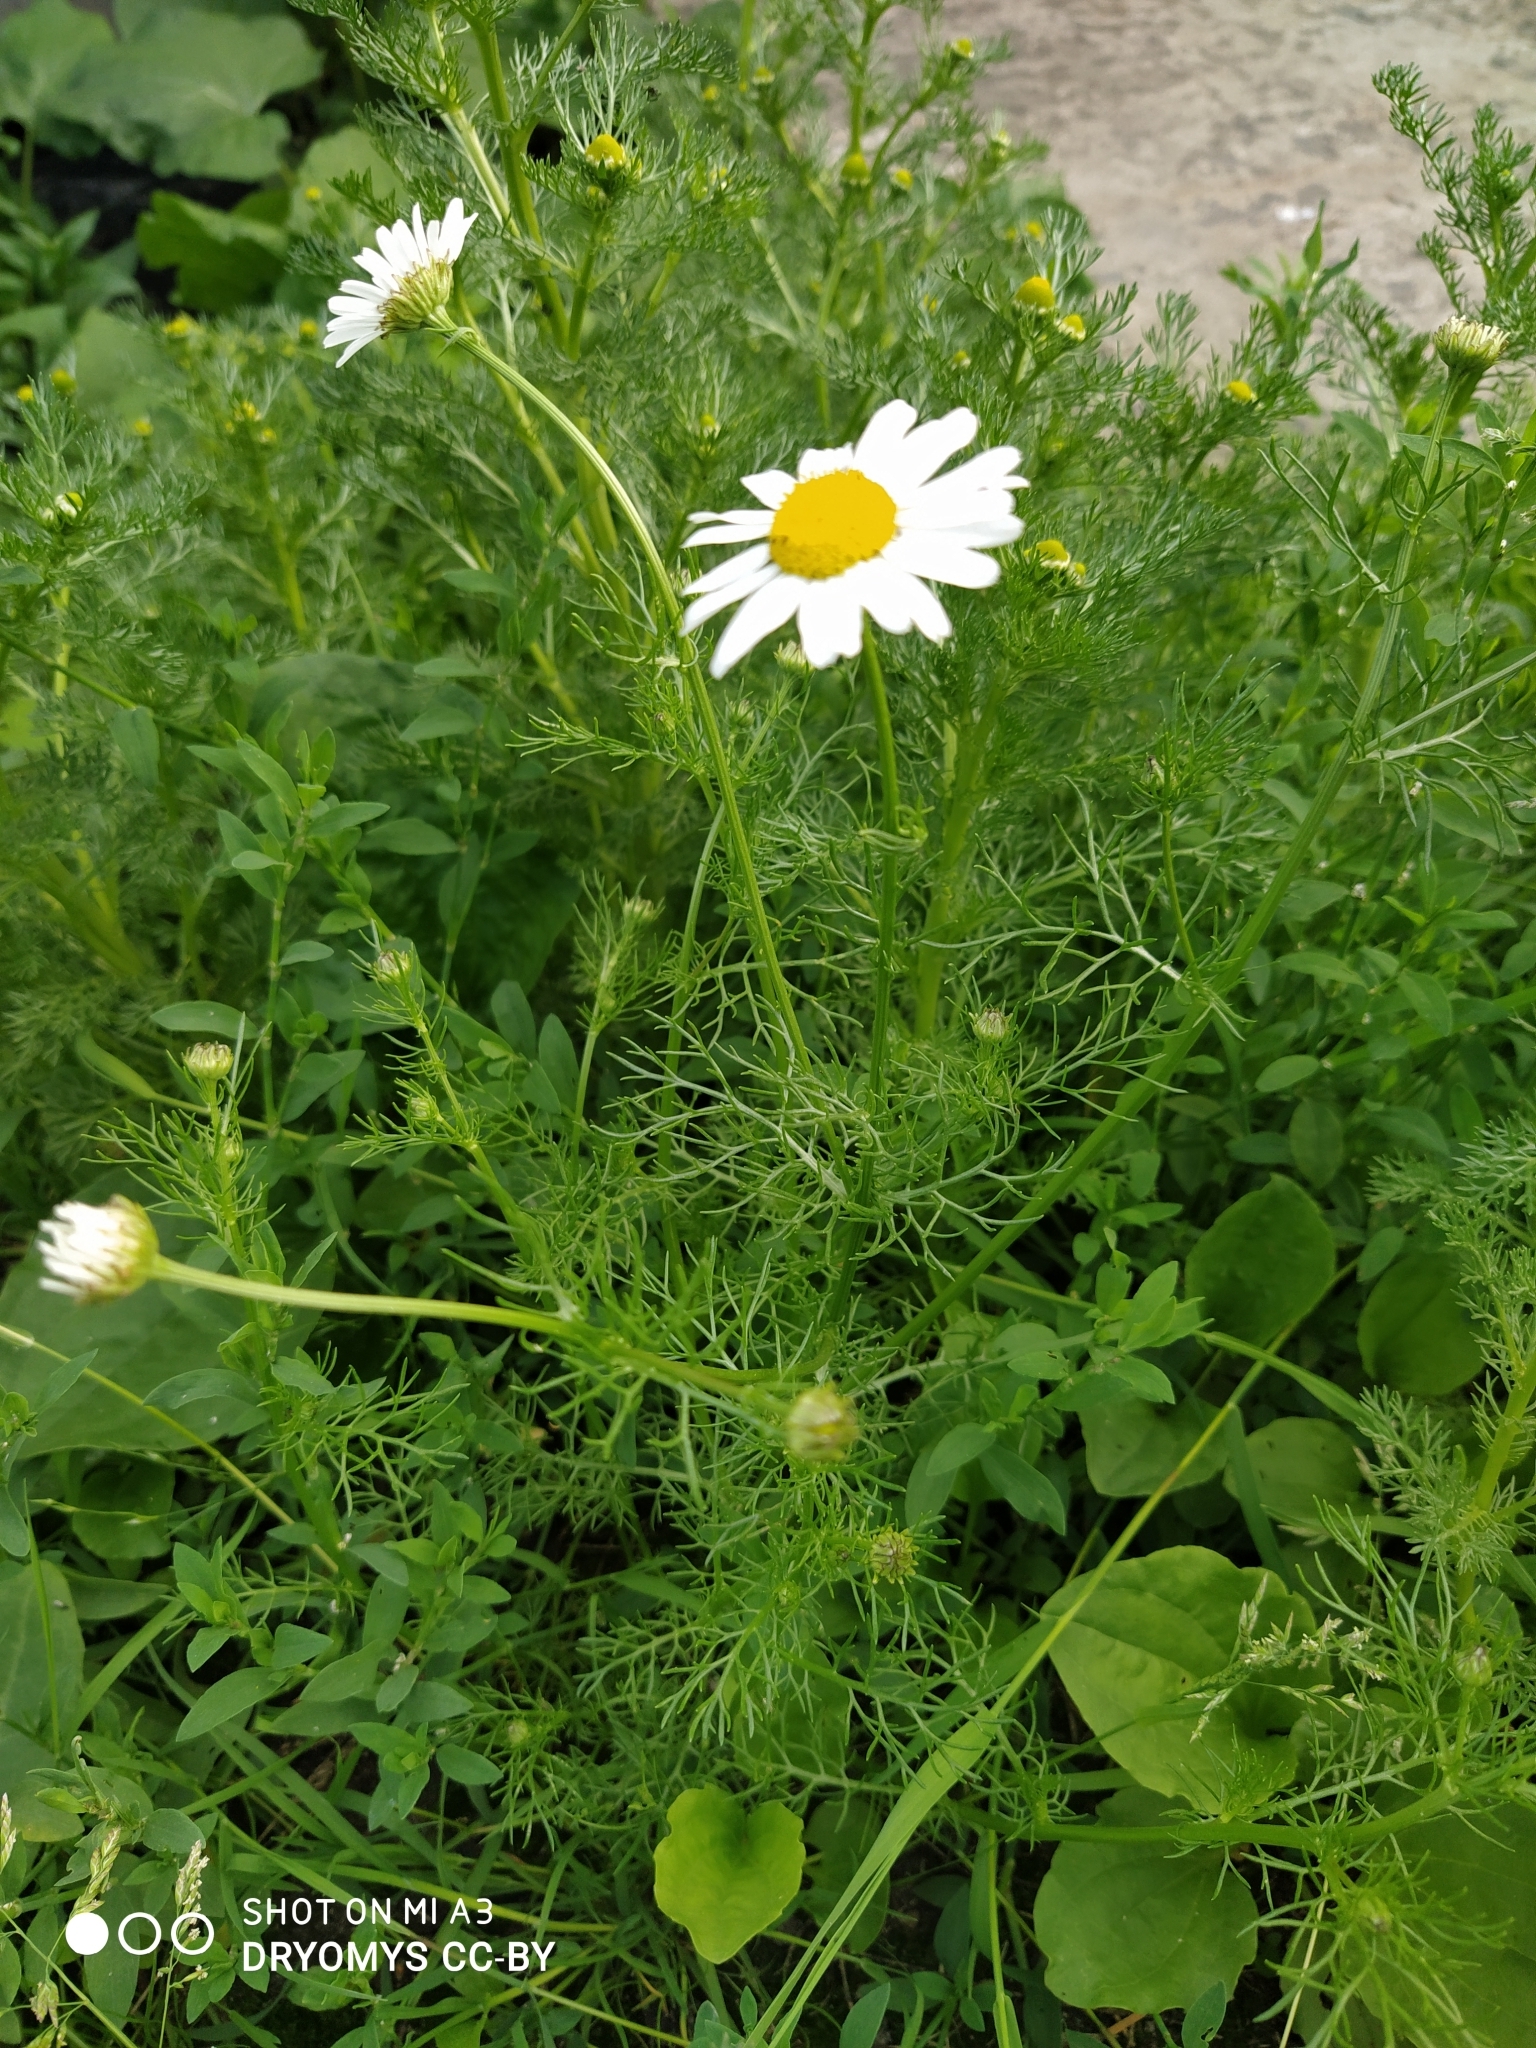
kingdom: Plantae
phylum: Tracheophyta
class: Magnoliopsida
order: Asterales
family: Asteraceae
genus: Tripleurospermum
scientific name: Tripleurospermum inodorum
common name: Scentless mayweed
